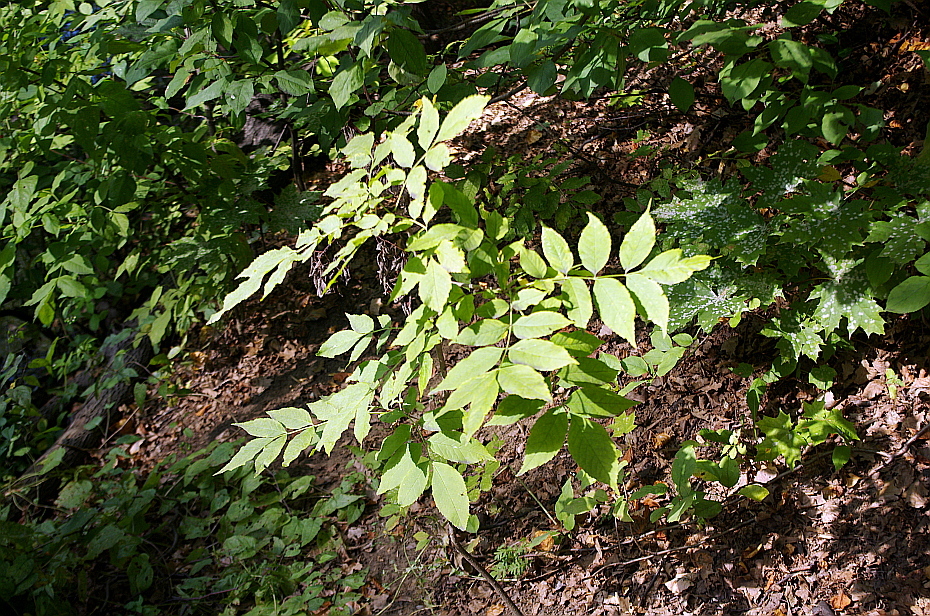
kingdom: Plantae
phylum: Tracheophyta
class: Magnoliopsida
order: Lamiales
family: Oleaceae
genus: Fraxinus
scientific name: Fraxinus pennsylvanica
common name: Green ash
